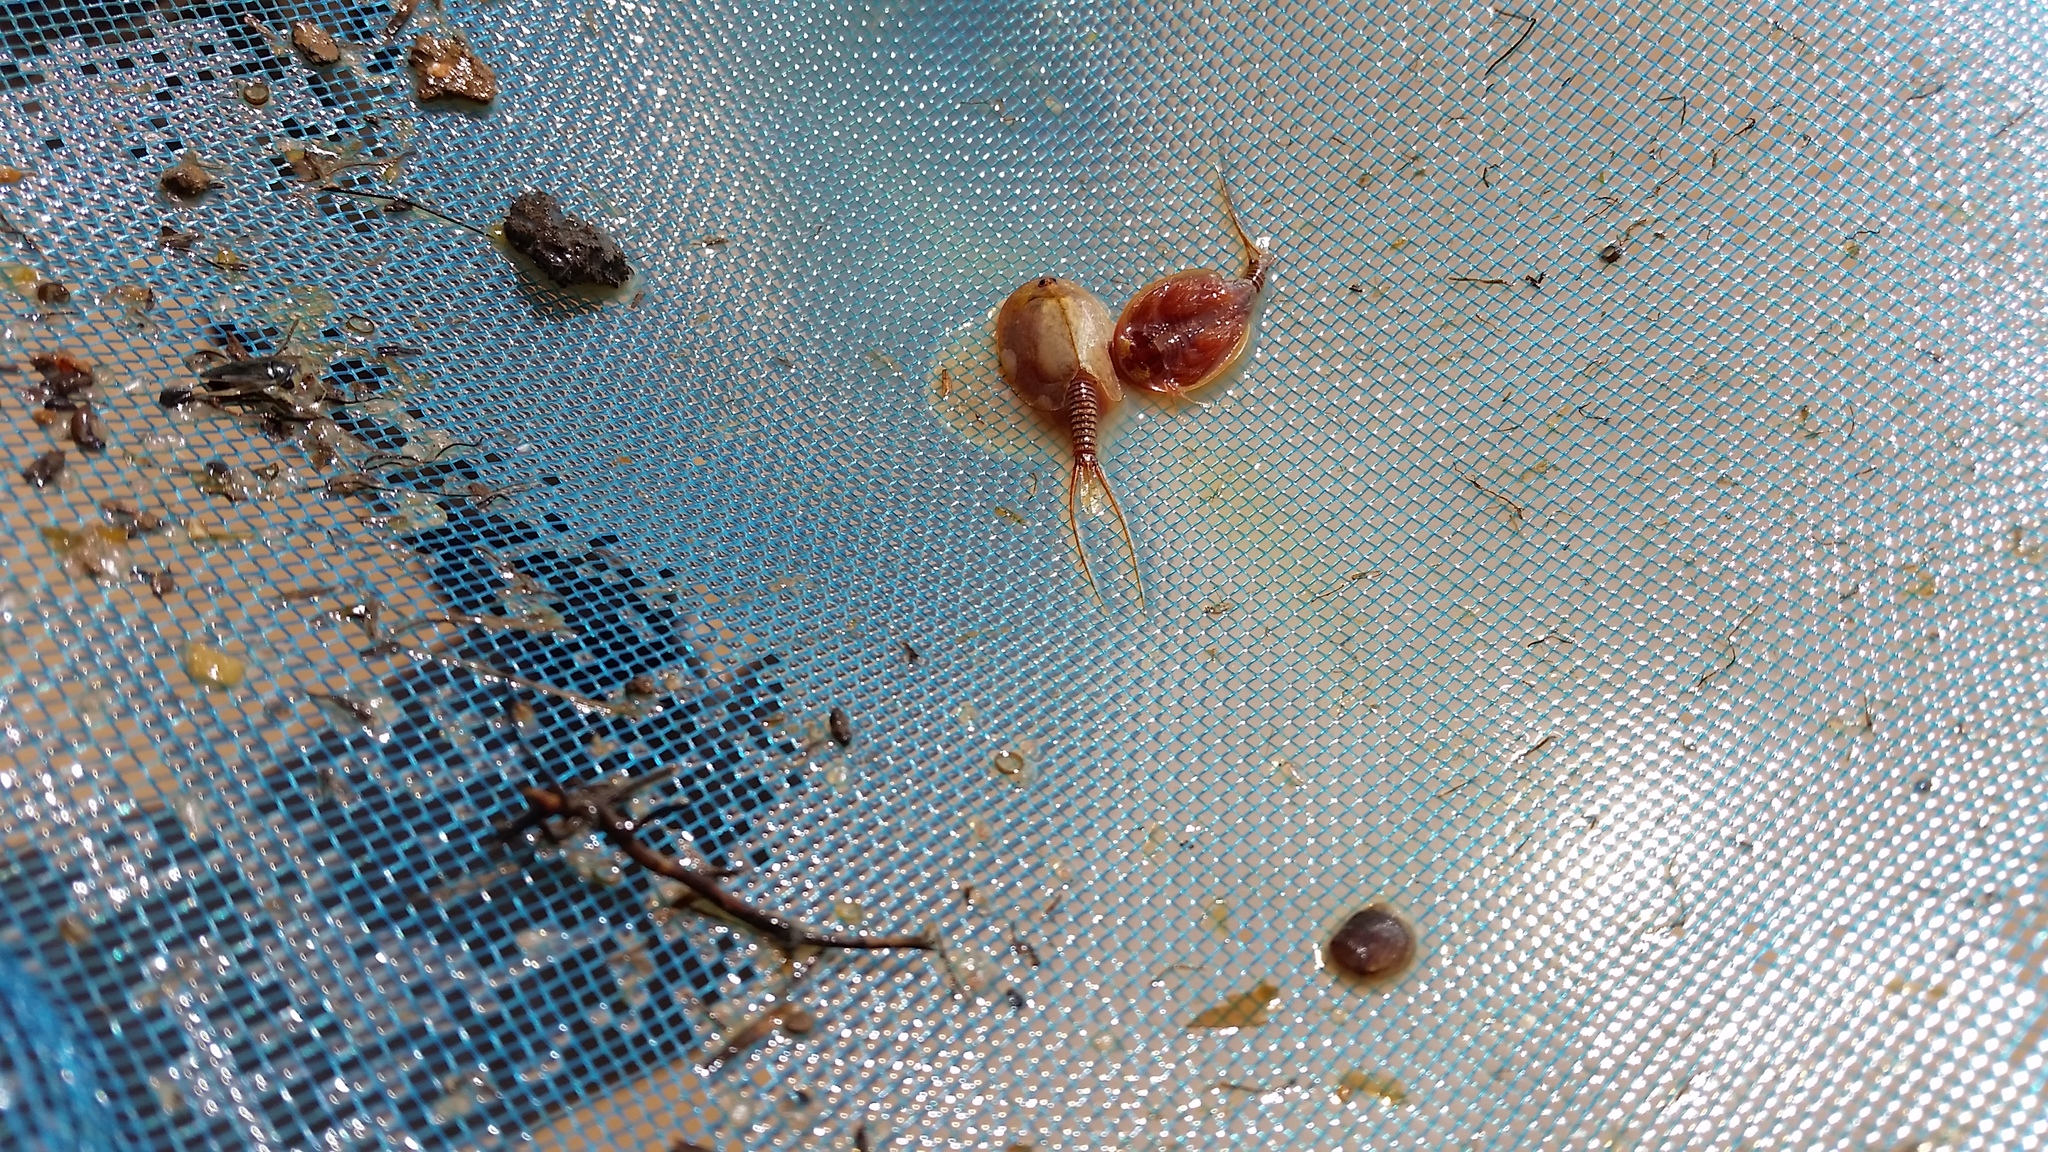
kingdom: Animalia
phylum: Arthropoda
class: Branchiopoda
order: Notostraca
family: Triopsidae
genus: Lepidurus
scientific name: Lepidurus packardi
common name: Vernal pool tadpole shrimp
